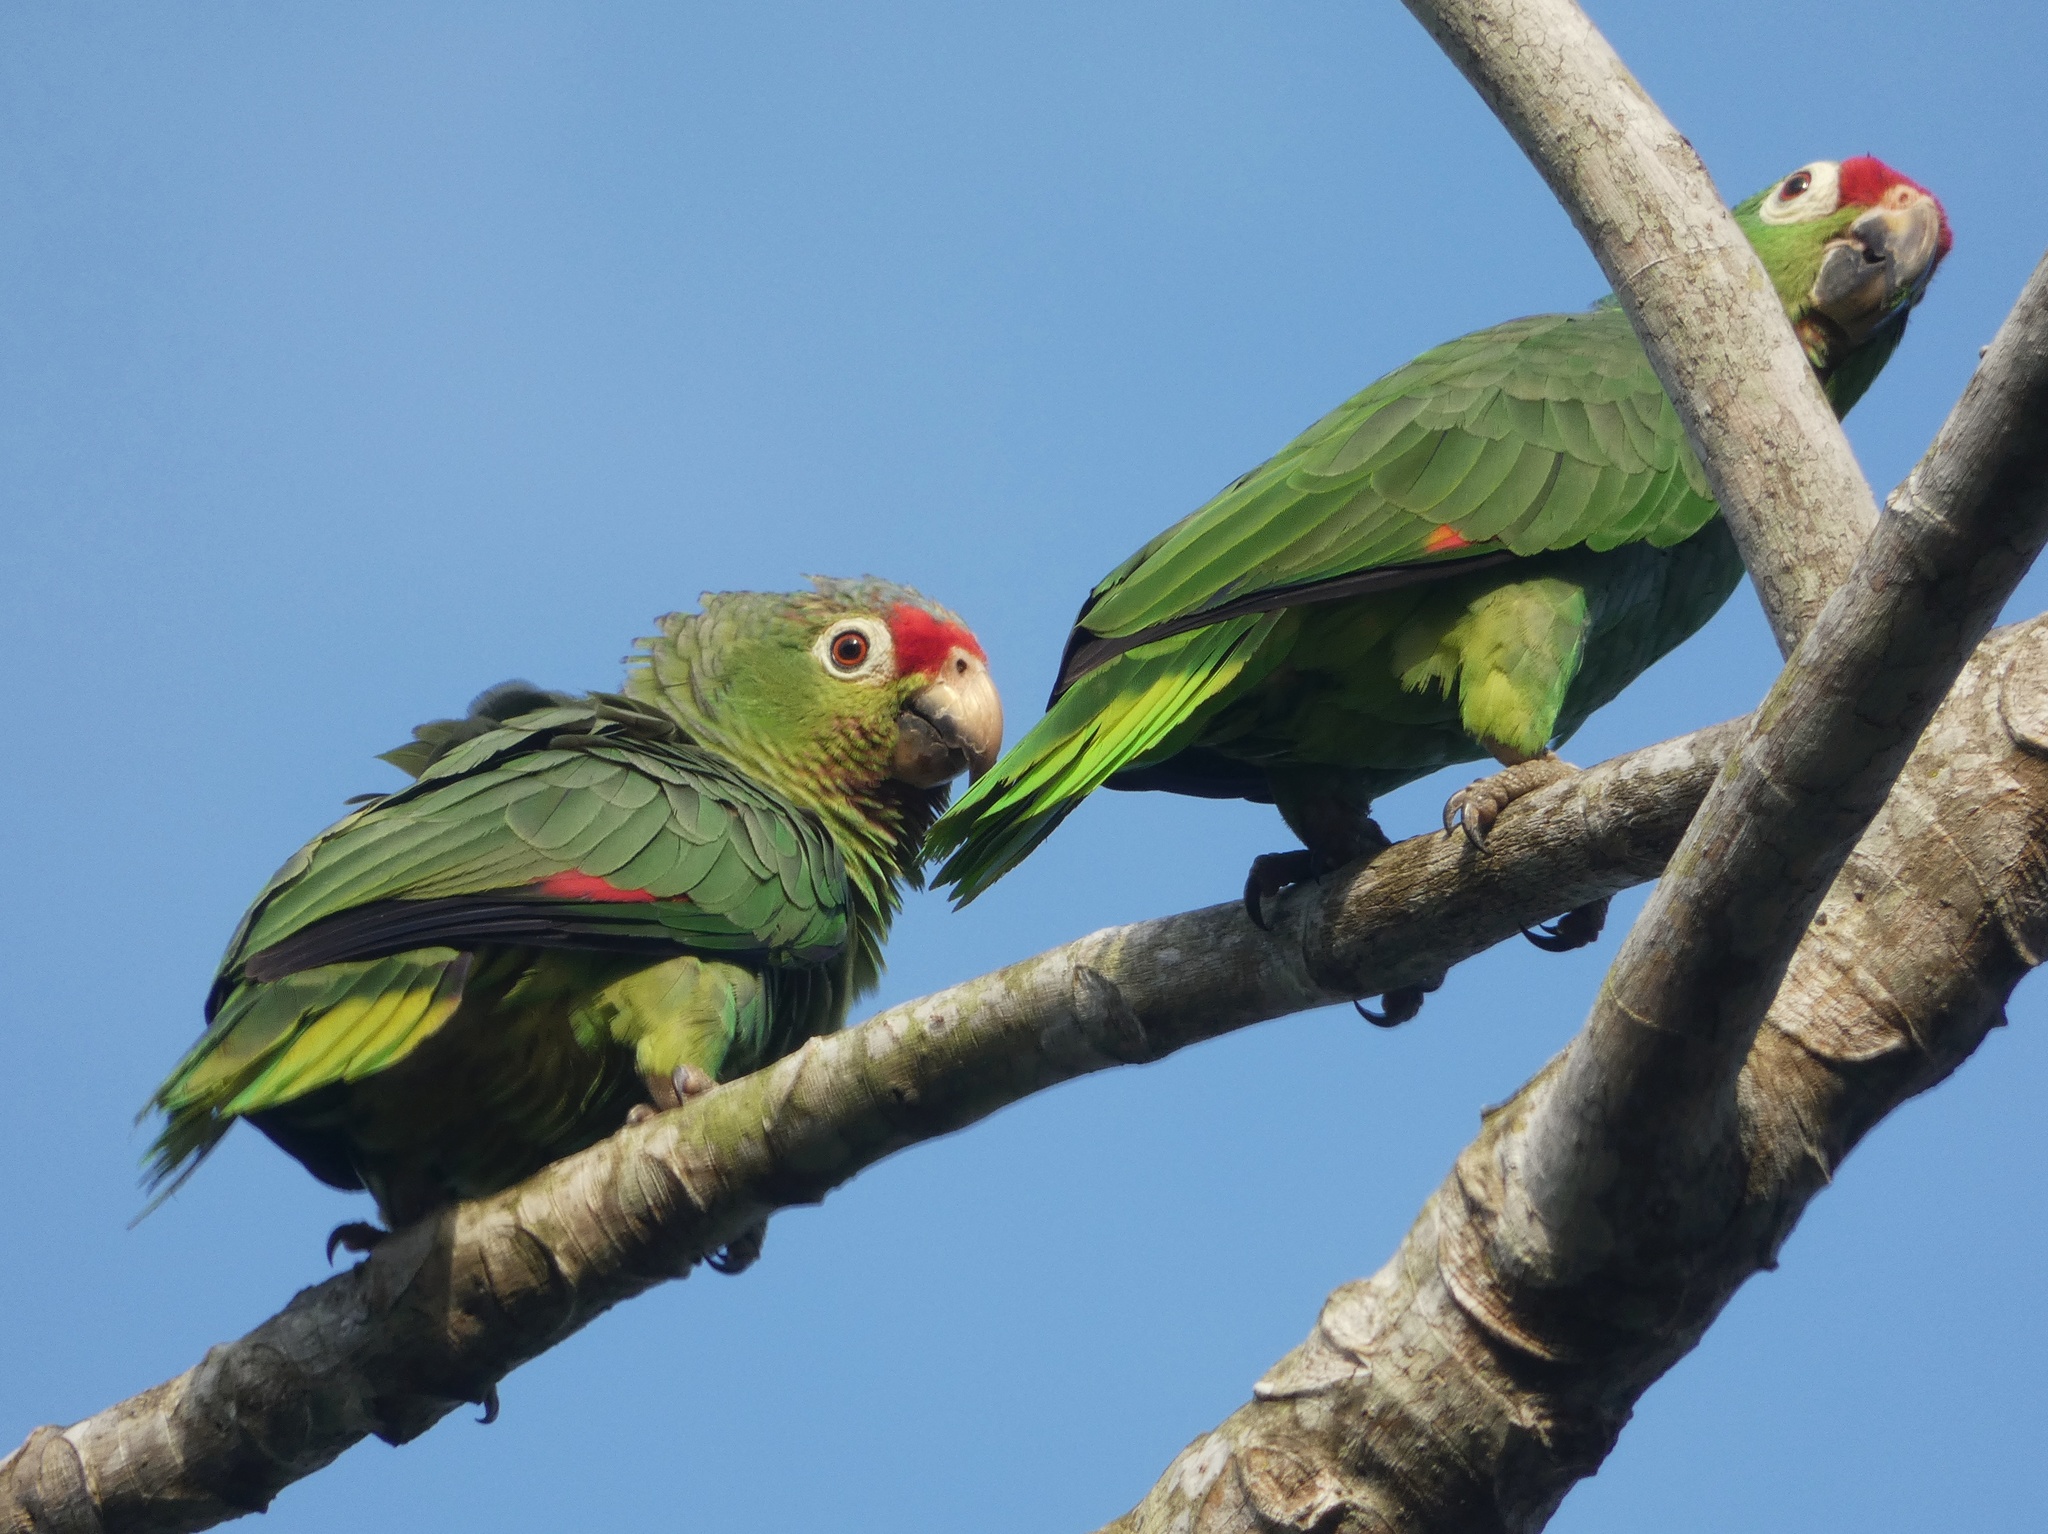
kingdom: Animalia
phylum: Chordata
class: Aves
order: Psittaciformes
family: Psittacidae
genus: Amazona
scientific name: Amazona autumnalis
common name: Red-lored amazon
